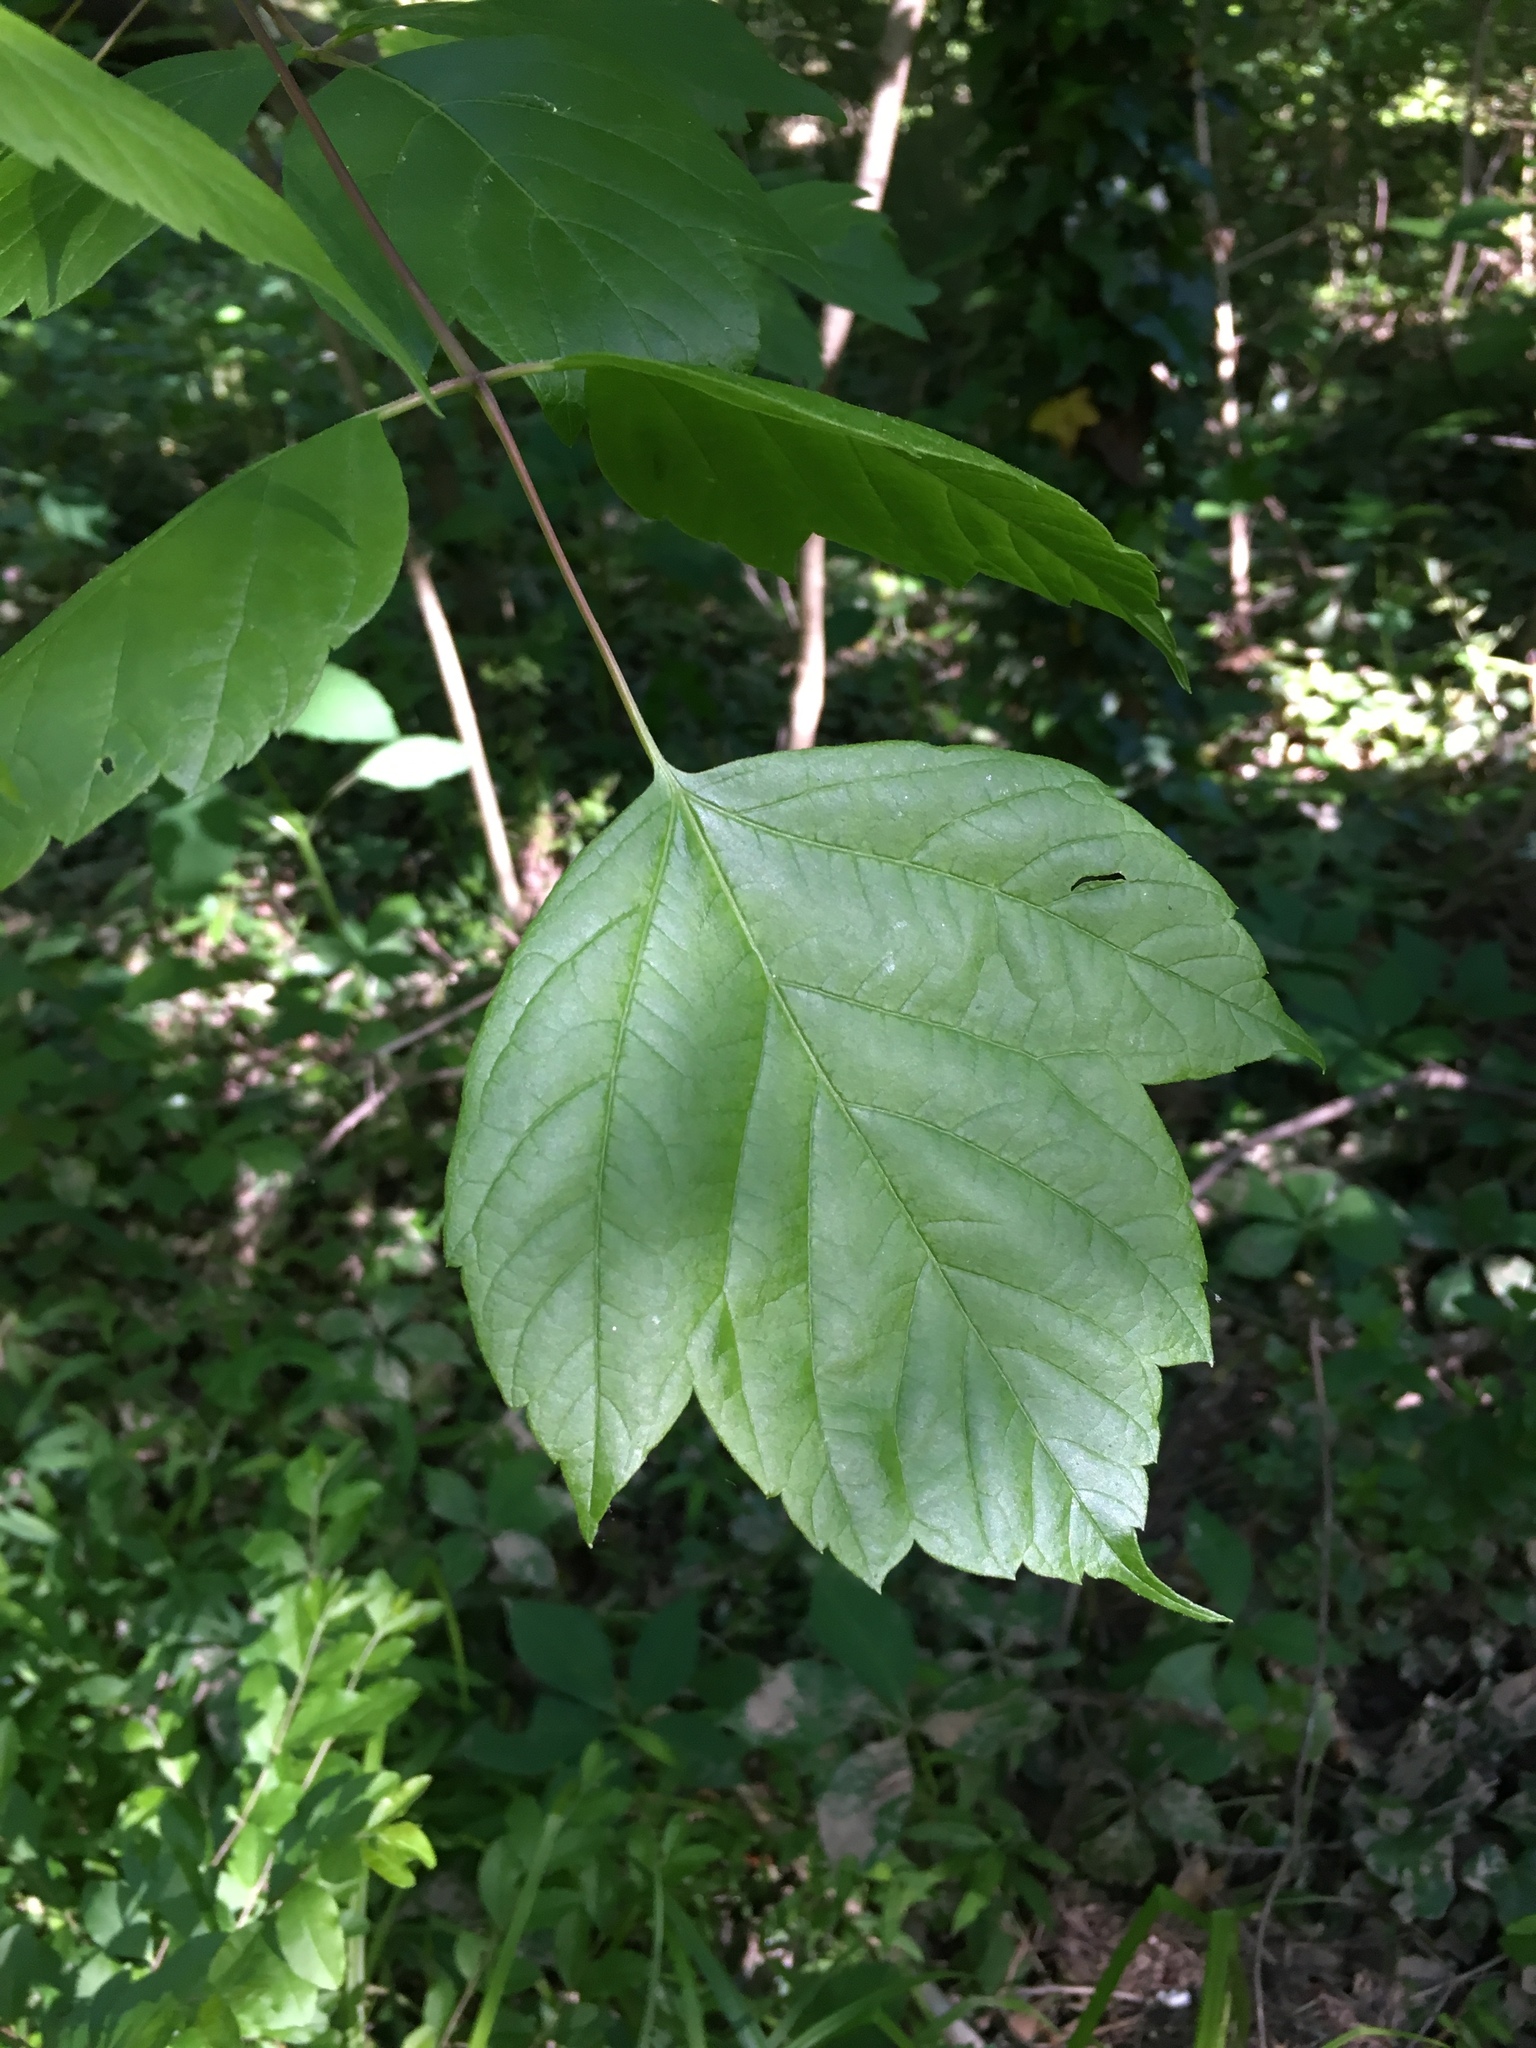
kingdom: Plantae
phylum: Tracheophyta
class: Magnoliopsida
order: Sapindales
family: Sapindaceae
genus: Acer
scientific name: Acer negundo
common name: Ashleaf maple
